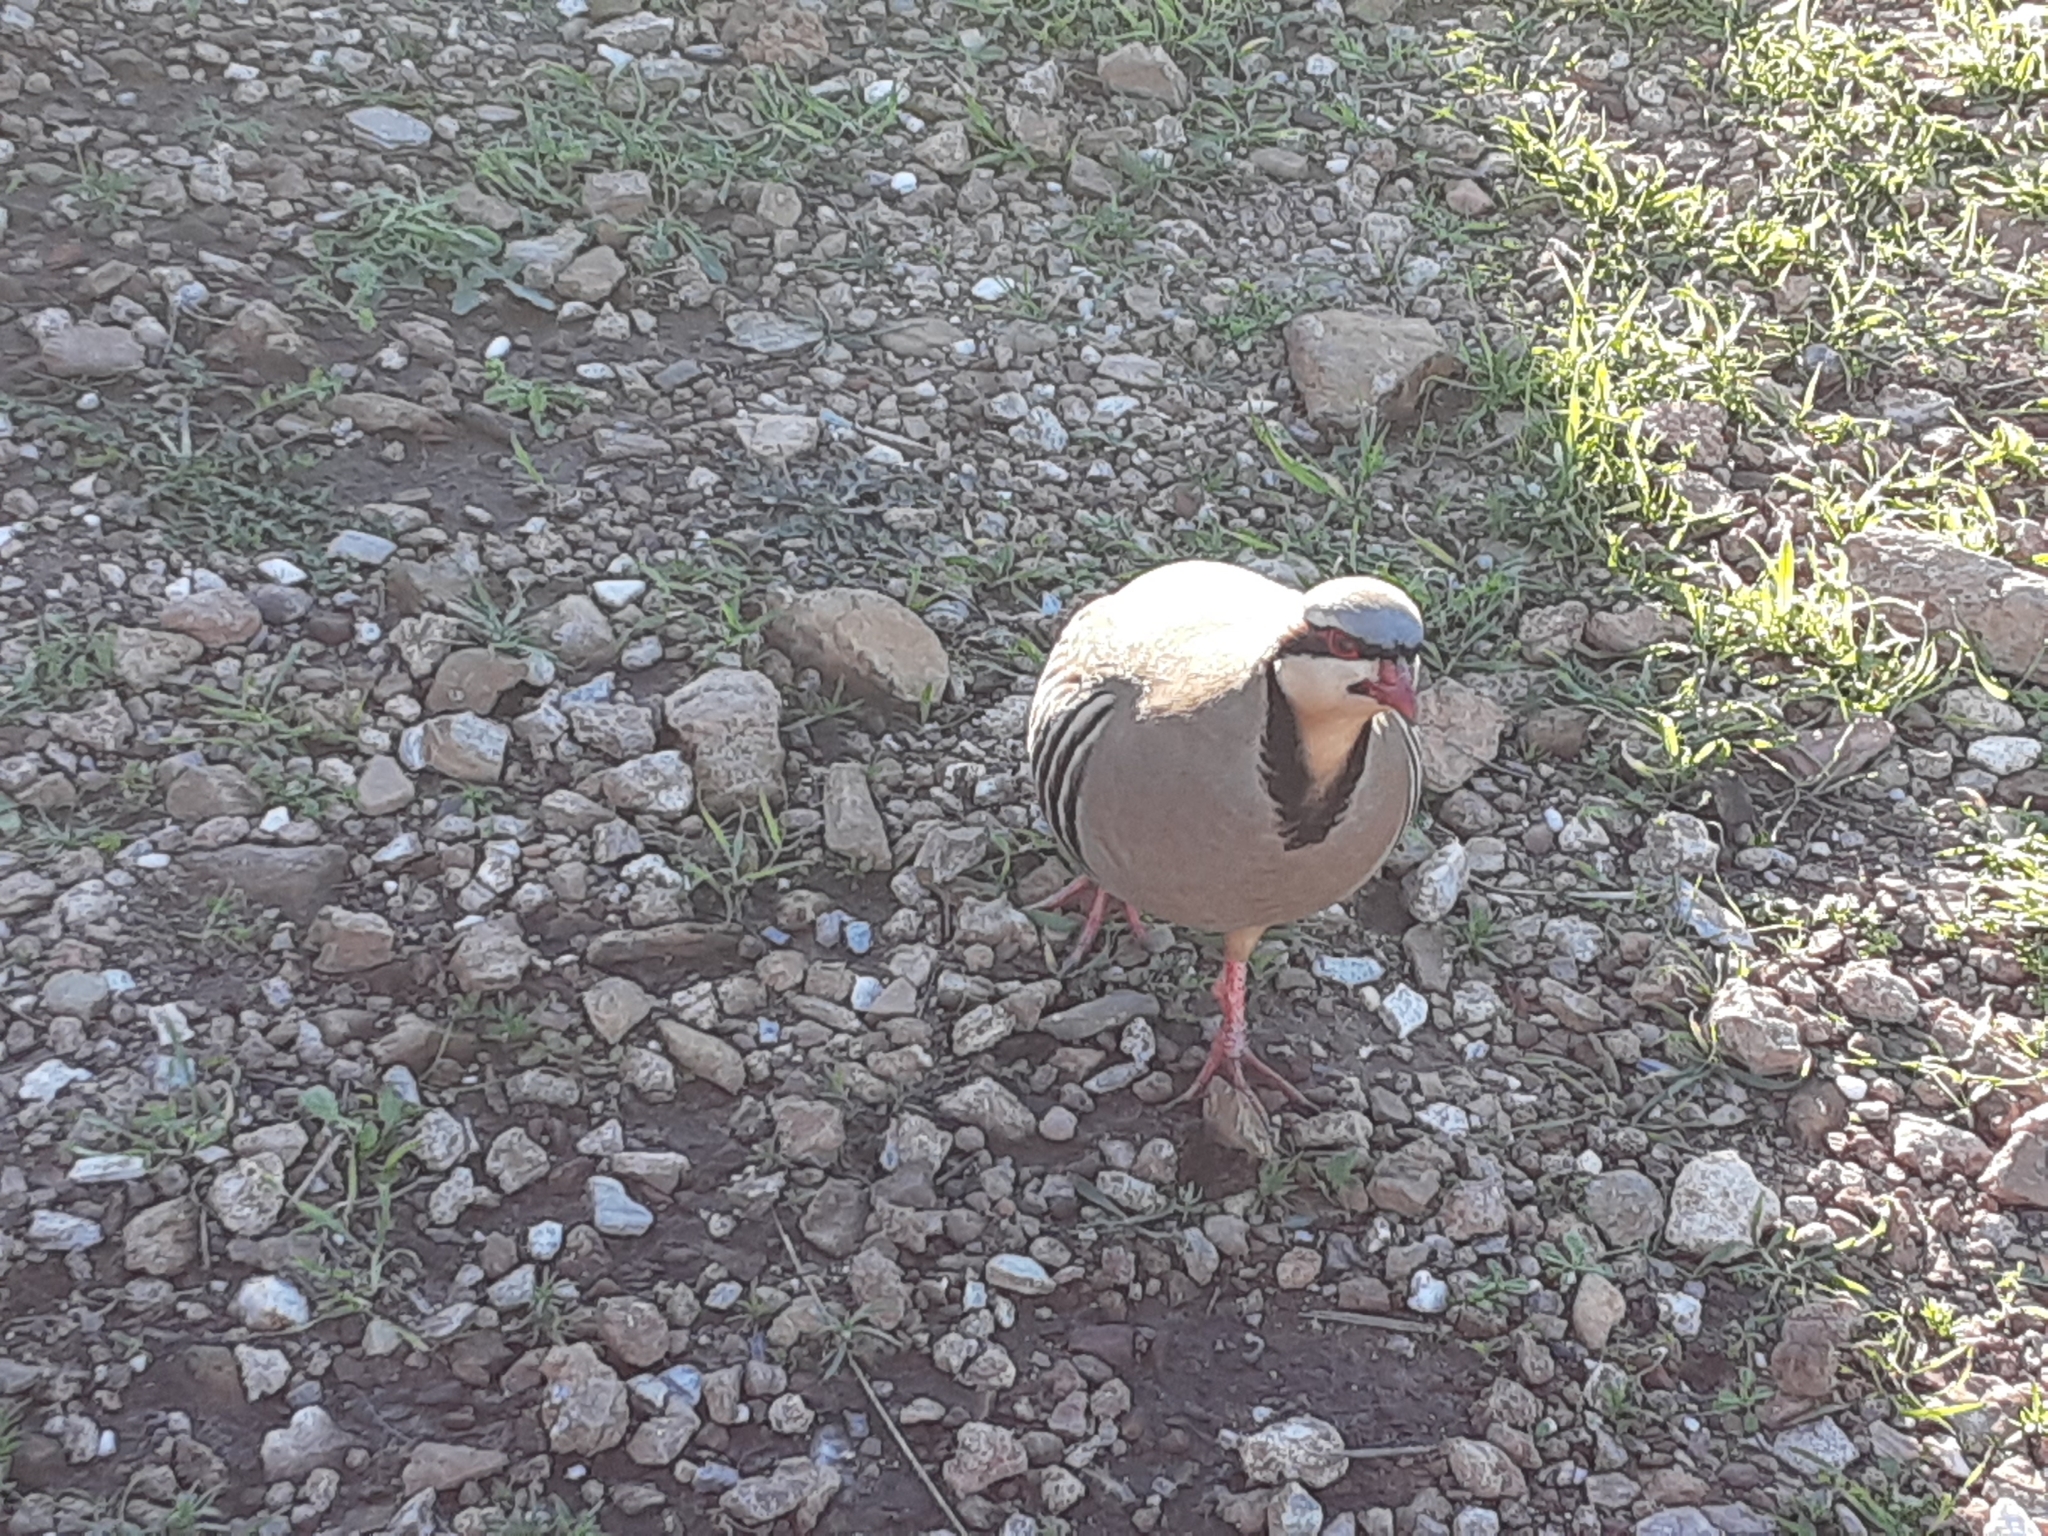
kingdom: Animalia
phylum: Chordata
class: Aves
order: Galliformes
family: Phasianidae
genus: Alectoris
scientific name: Alectoris chukar
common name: Chukar
